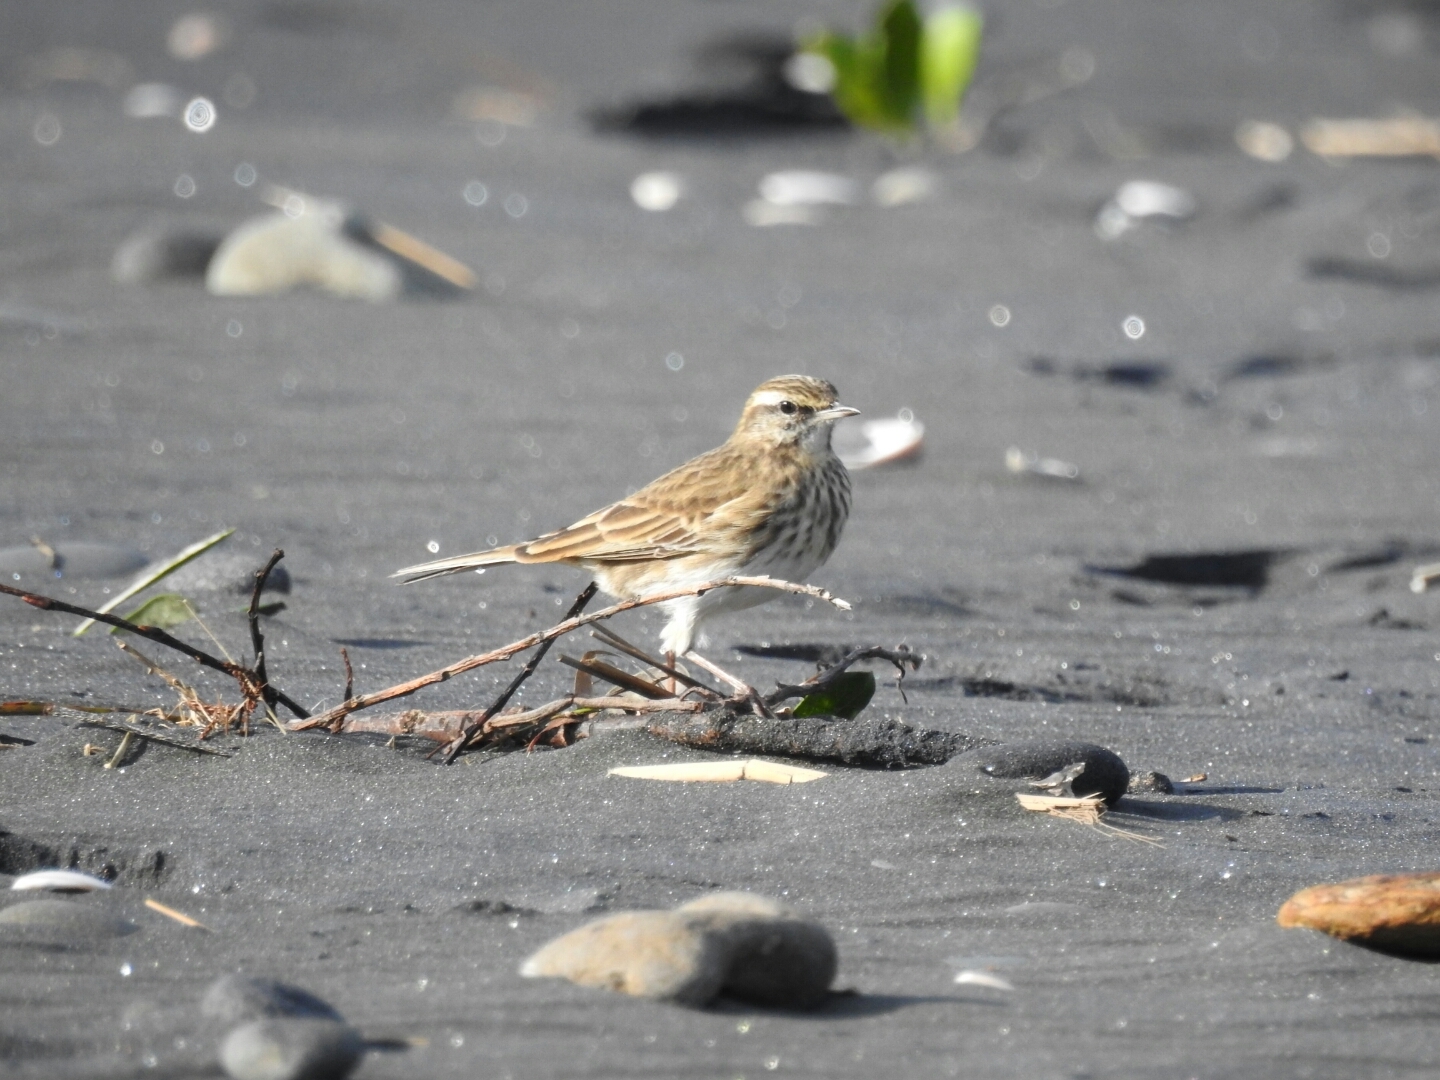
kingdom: Animalia
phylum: Chordata
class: Aves
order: Passeriformes
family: Motacillidae
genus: Anthus
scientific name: Anthus novaeseelandiae
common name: New zealand pipit
